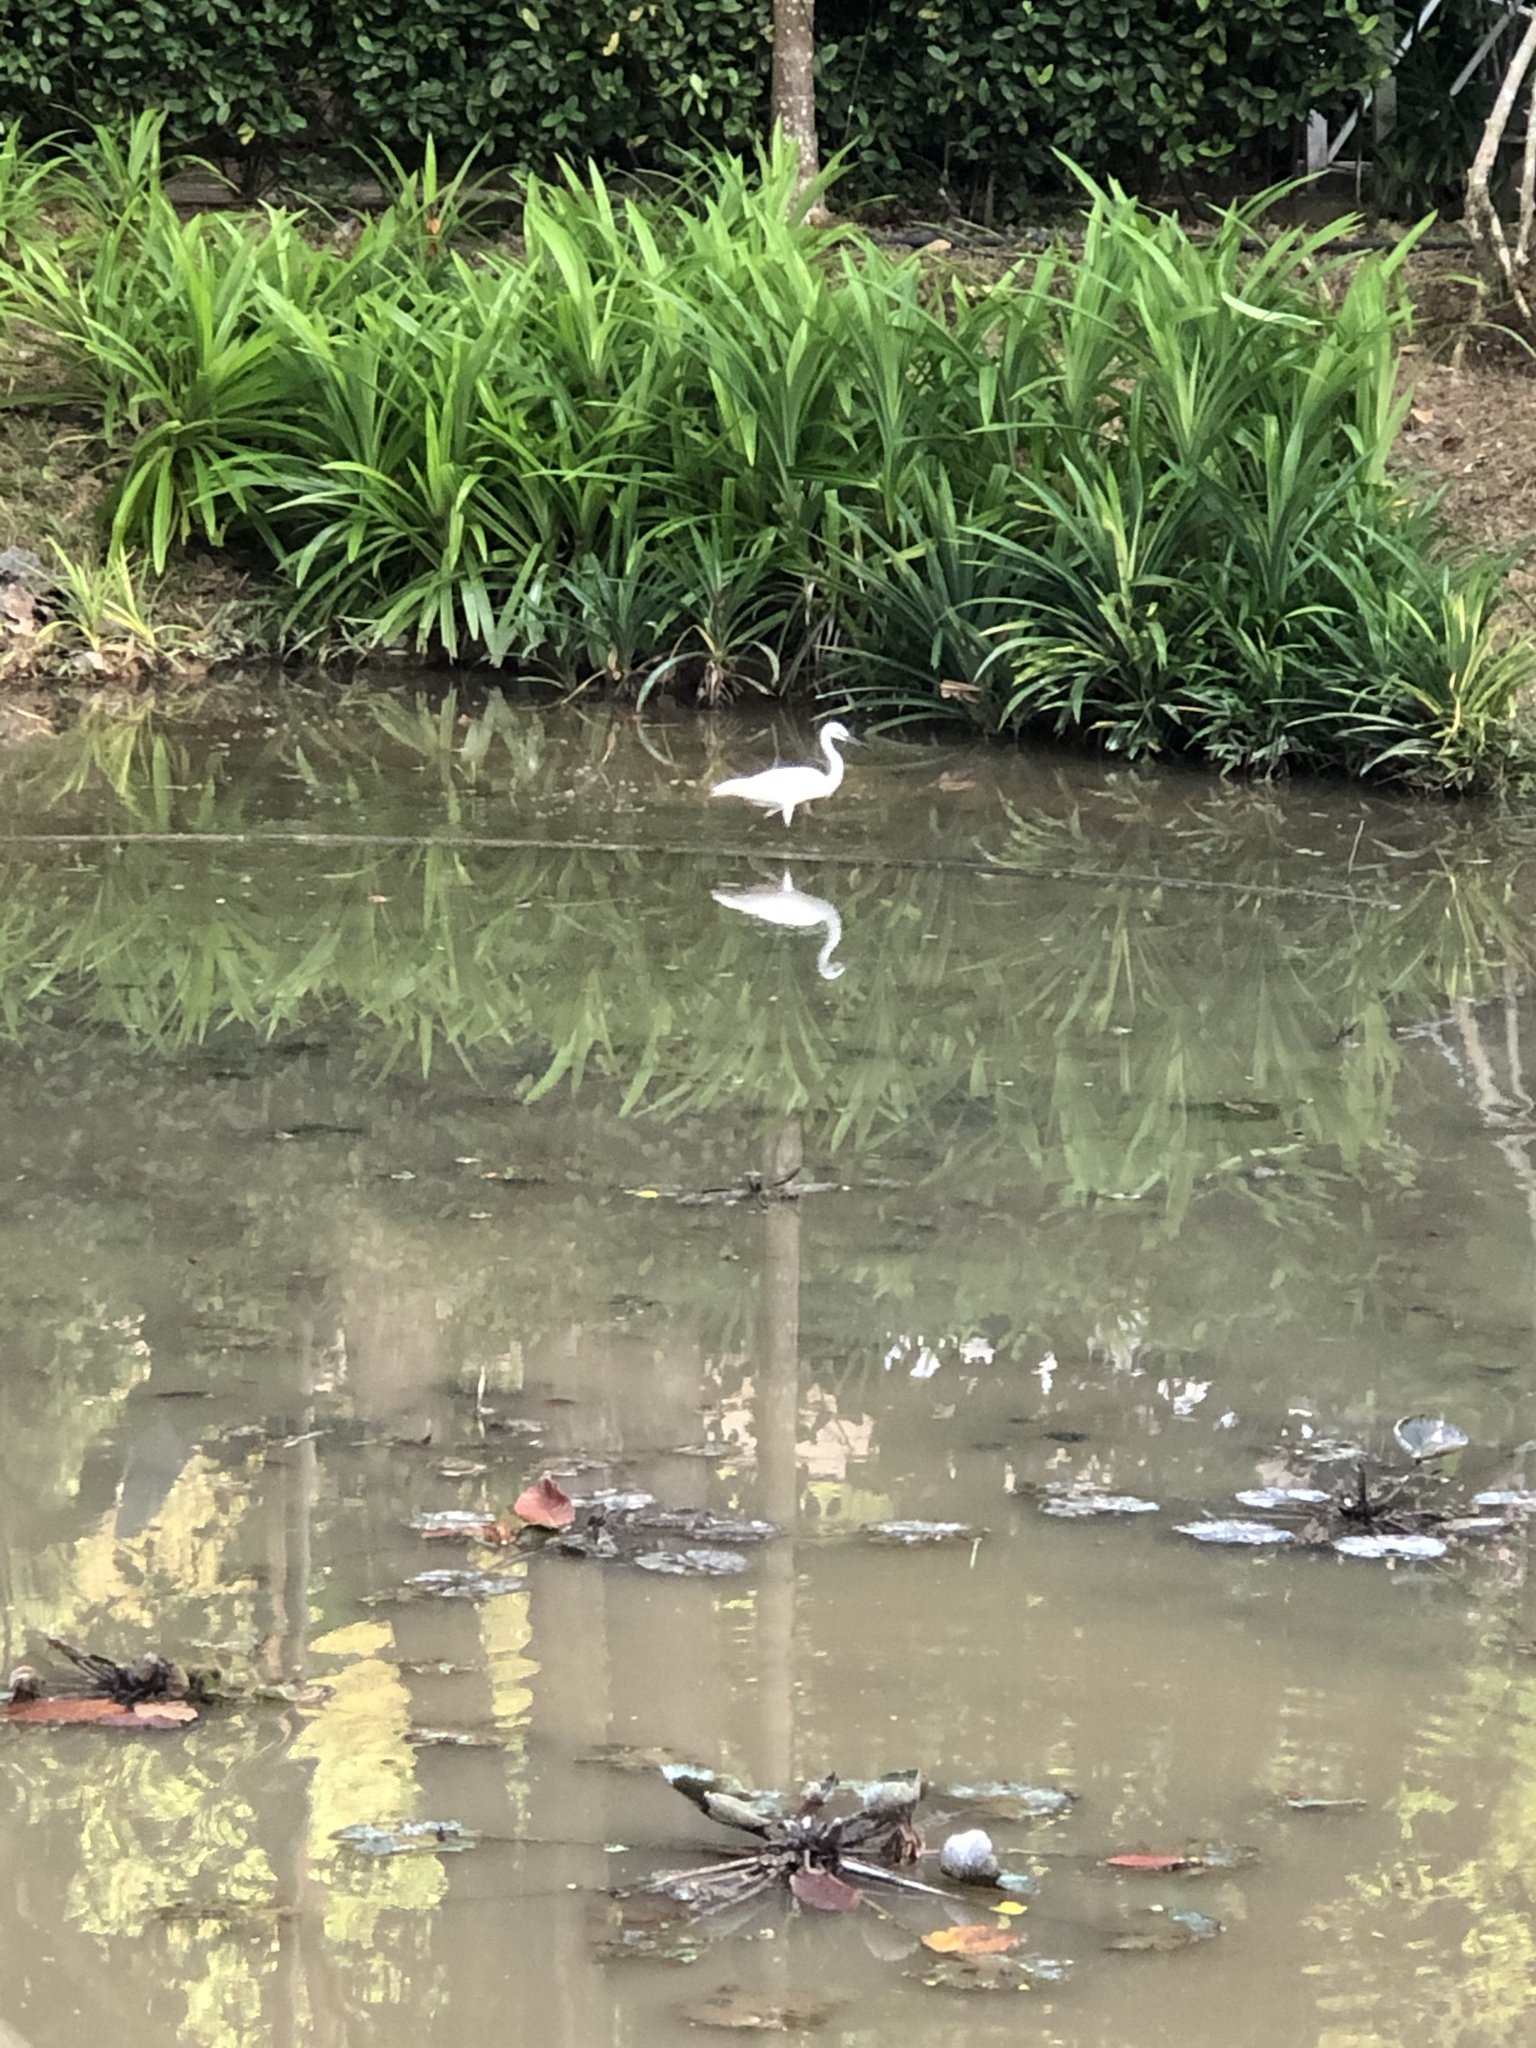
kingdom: Animalia
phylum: Chordata
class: Aves
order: Pelecaniformes
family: Ardeidae
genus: Egretta
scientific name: Egretta garzetta
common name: Little egret
